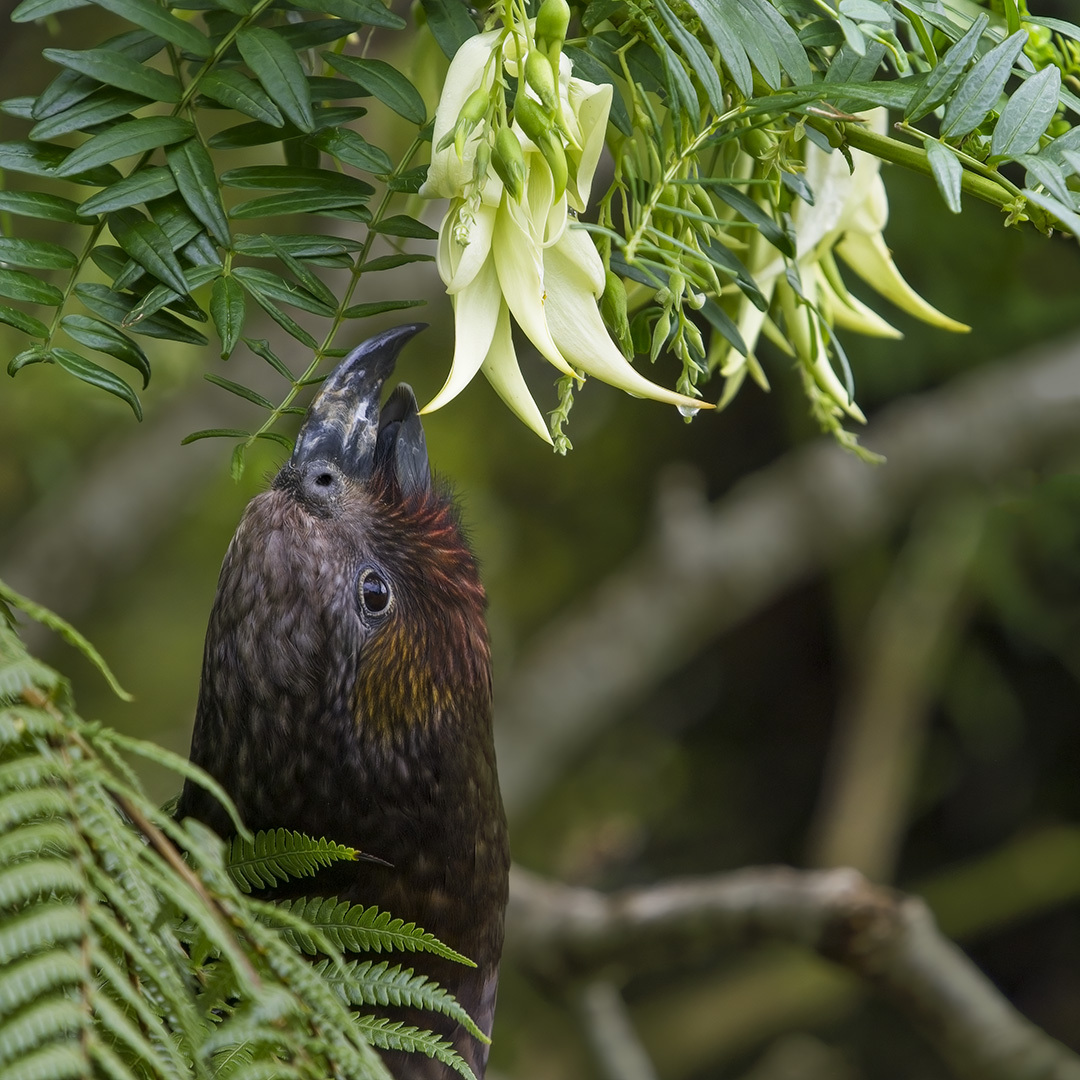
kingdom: Animalia
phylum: Chordata
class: Aves
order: Psittaciformes
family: Psittacidae
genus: Nestor
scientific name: Nestor meridionalis
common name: New zealand kaka
